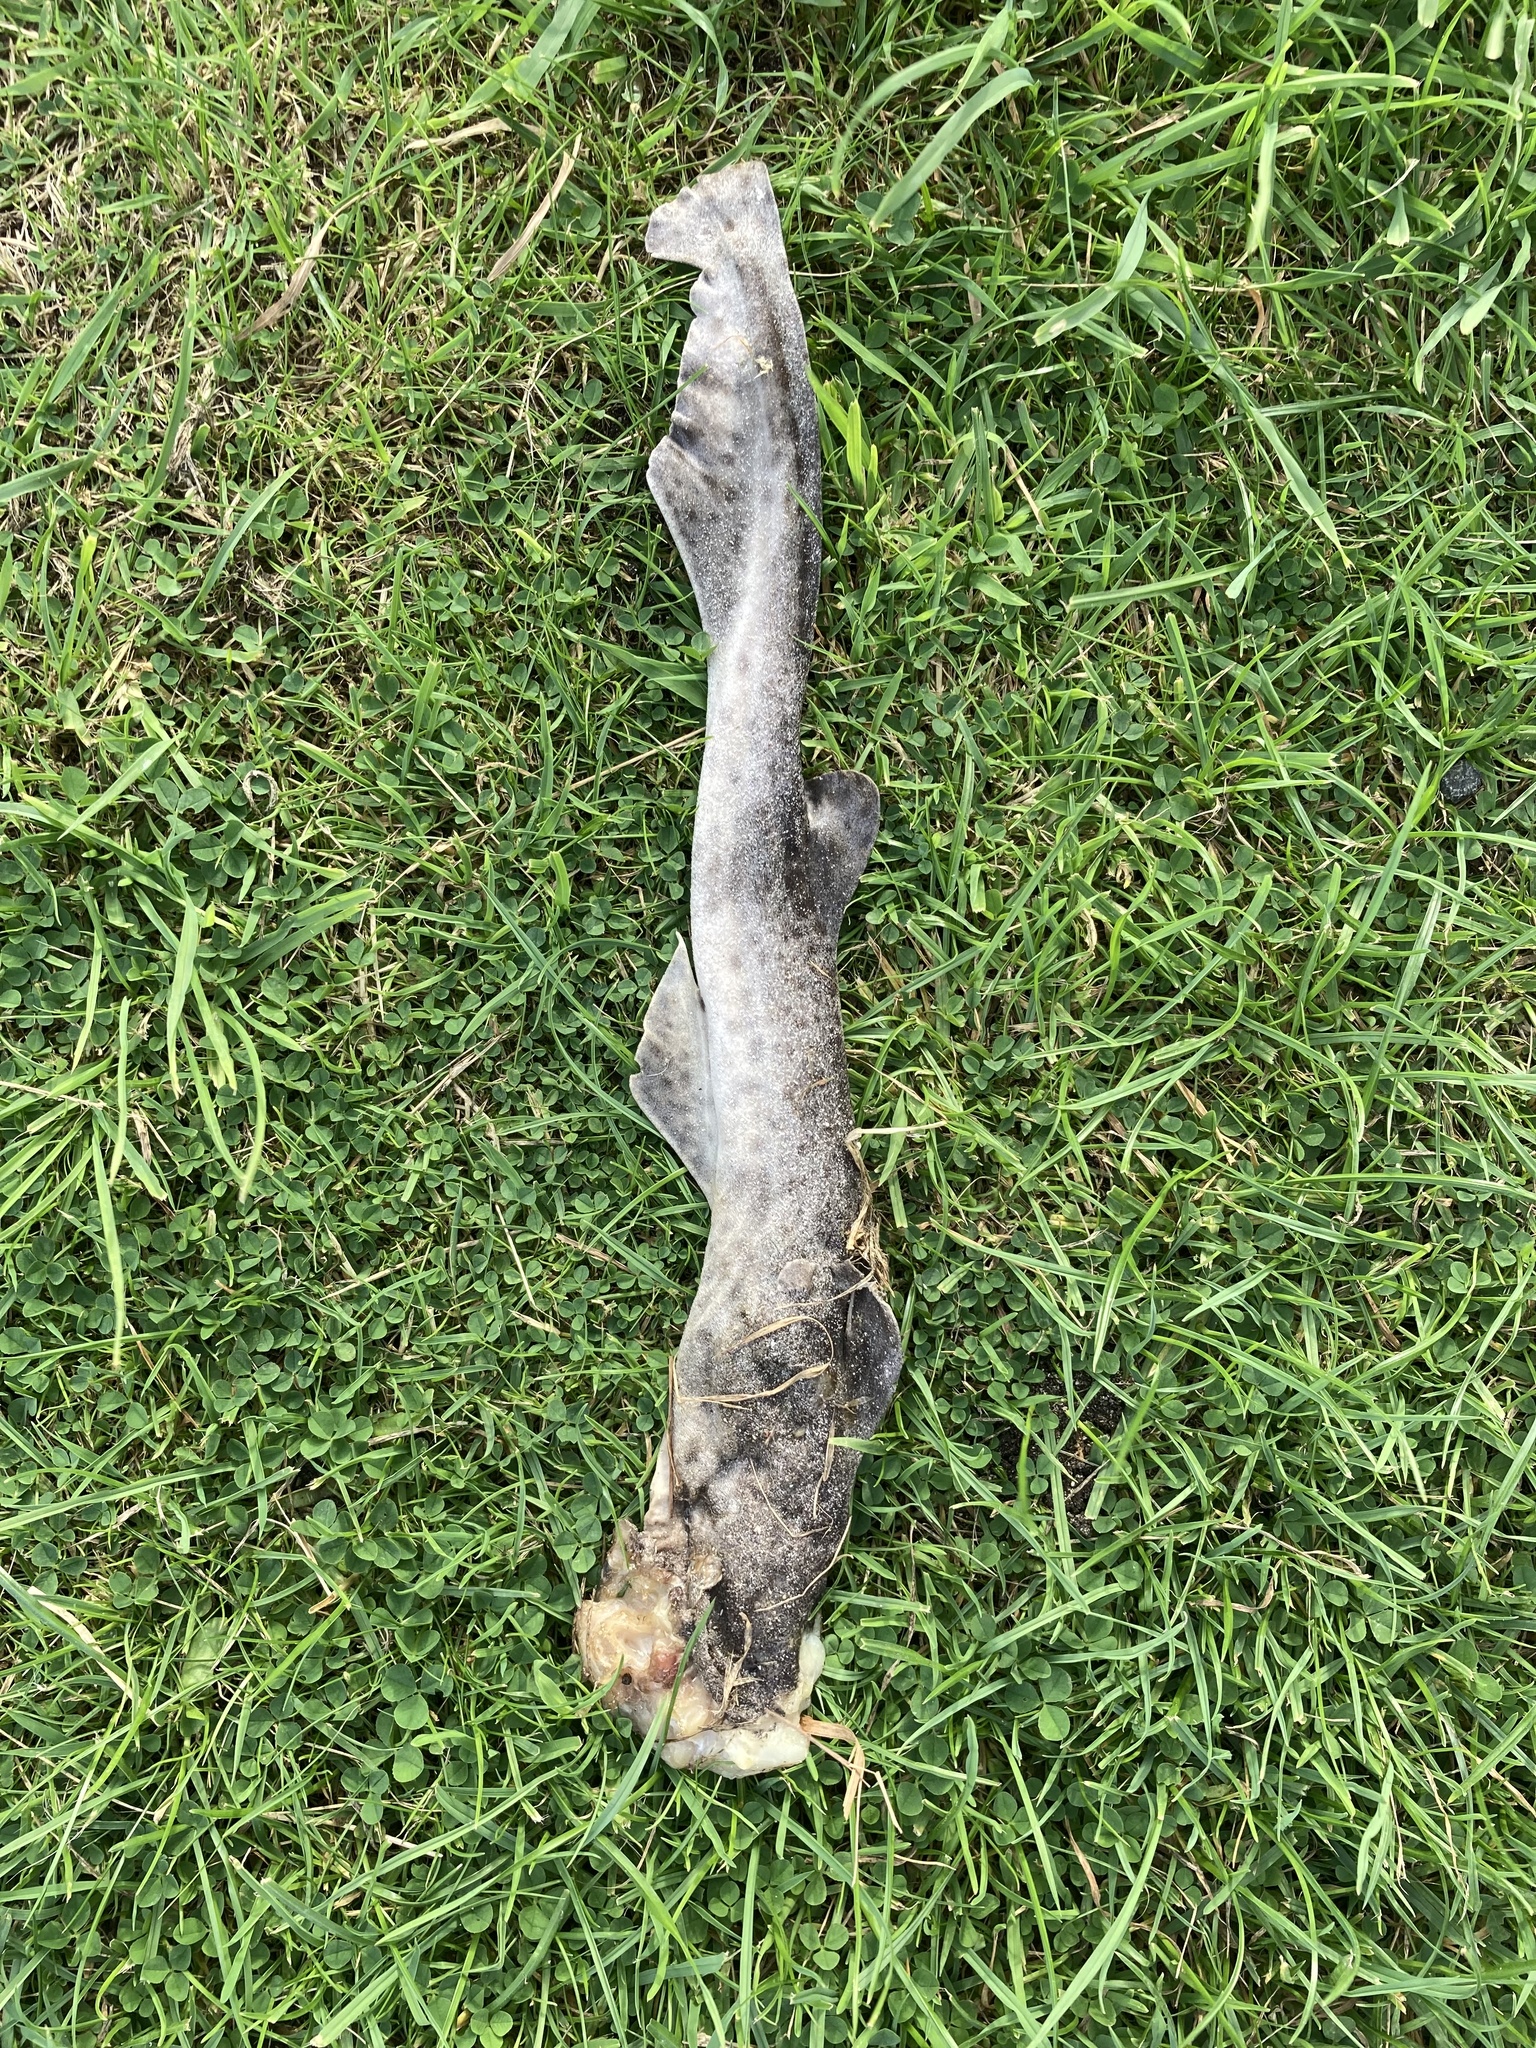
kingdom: Animalia
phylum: Chordata
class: Elasmobranchii
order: Carcharhiniformes
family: Scyliorhinidae
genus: Scyliorhinus
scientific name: Scyliorhinus canicula
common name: Lesser spotted dogfish
